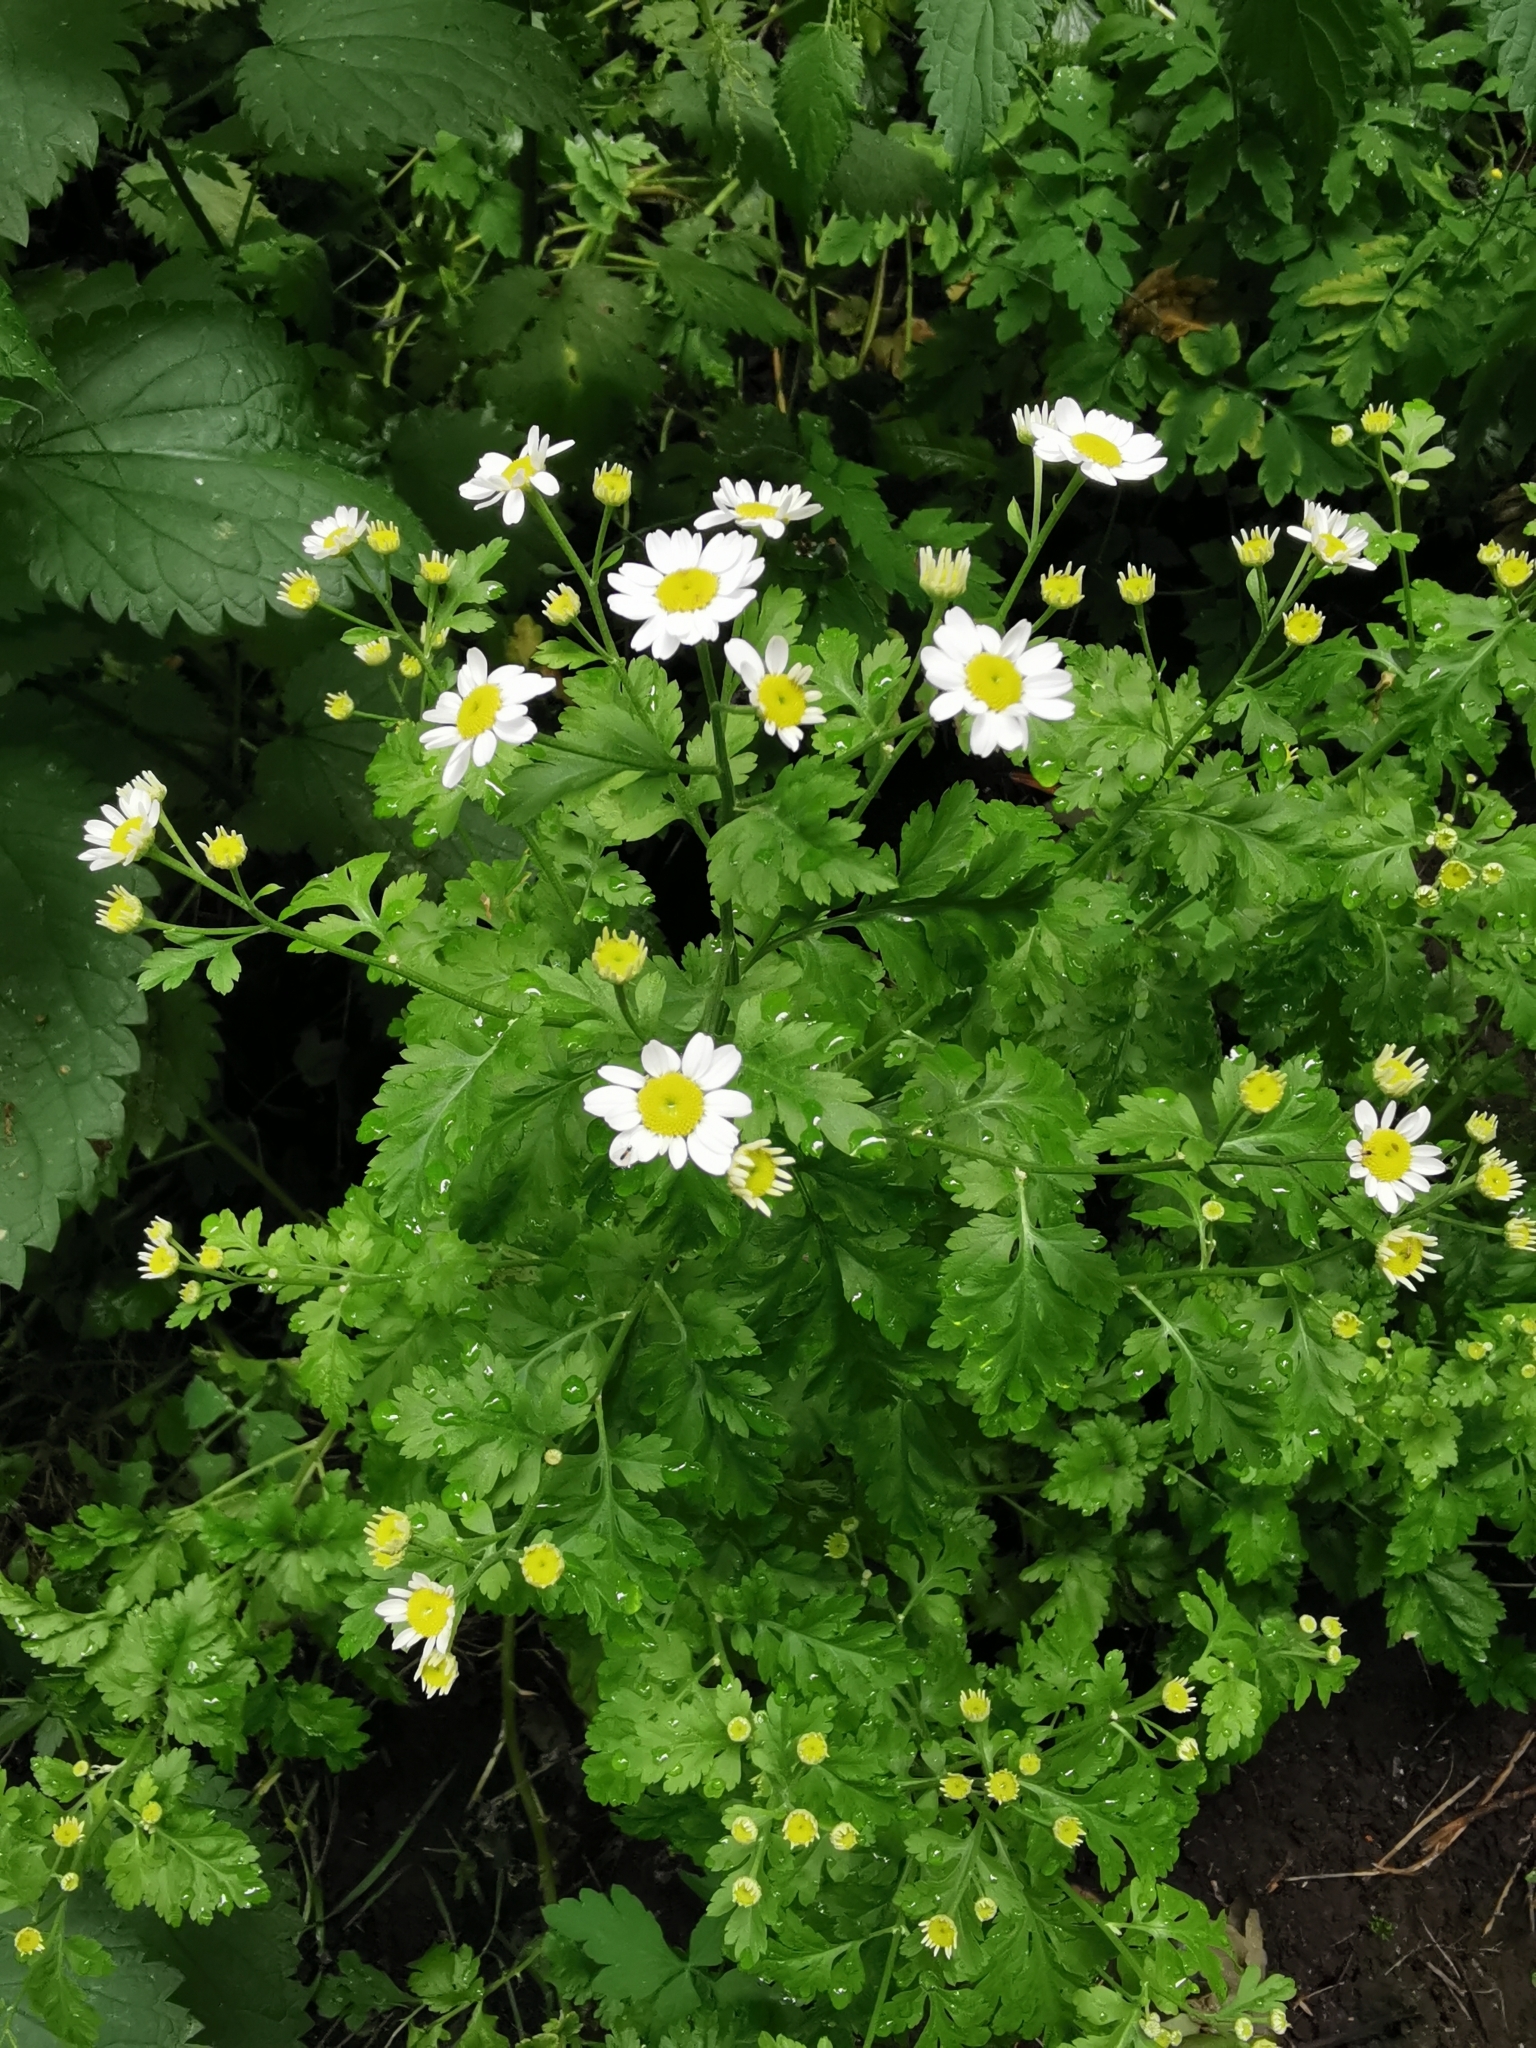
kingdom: Plantae
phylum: Tracheophyta
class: Magnoliopsida
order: Asterales
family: Asteraceae
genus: Tanacetum
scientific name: Tanacetum parthenium
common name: Feverfew
